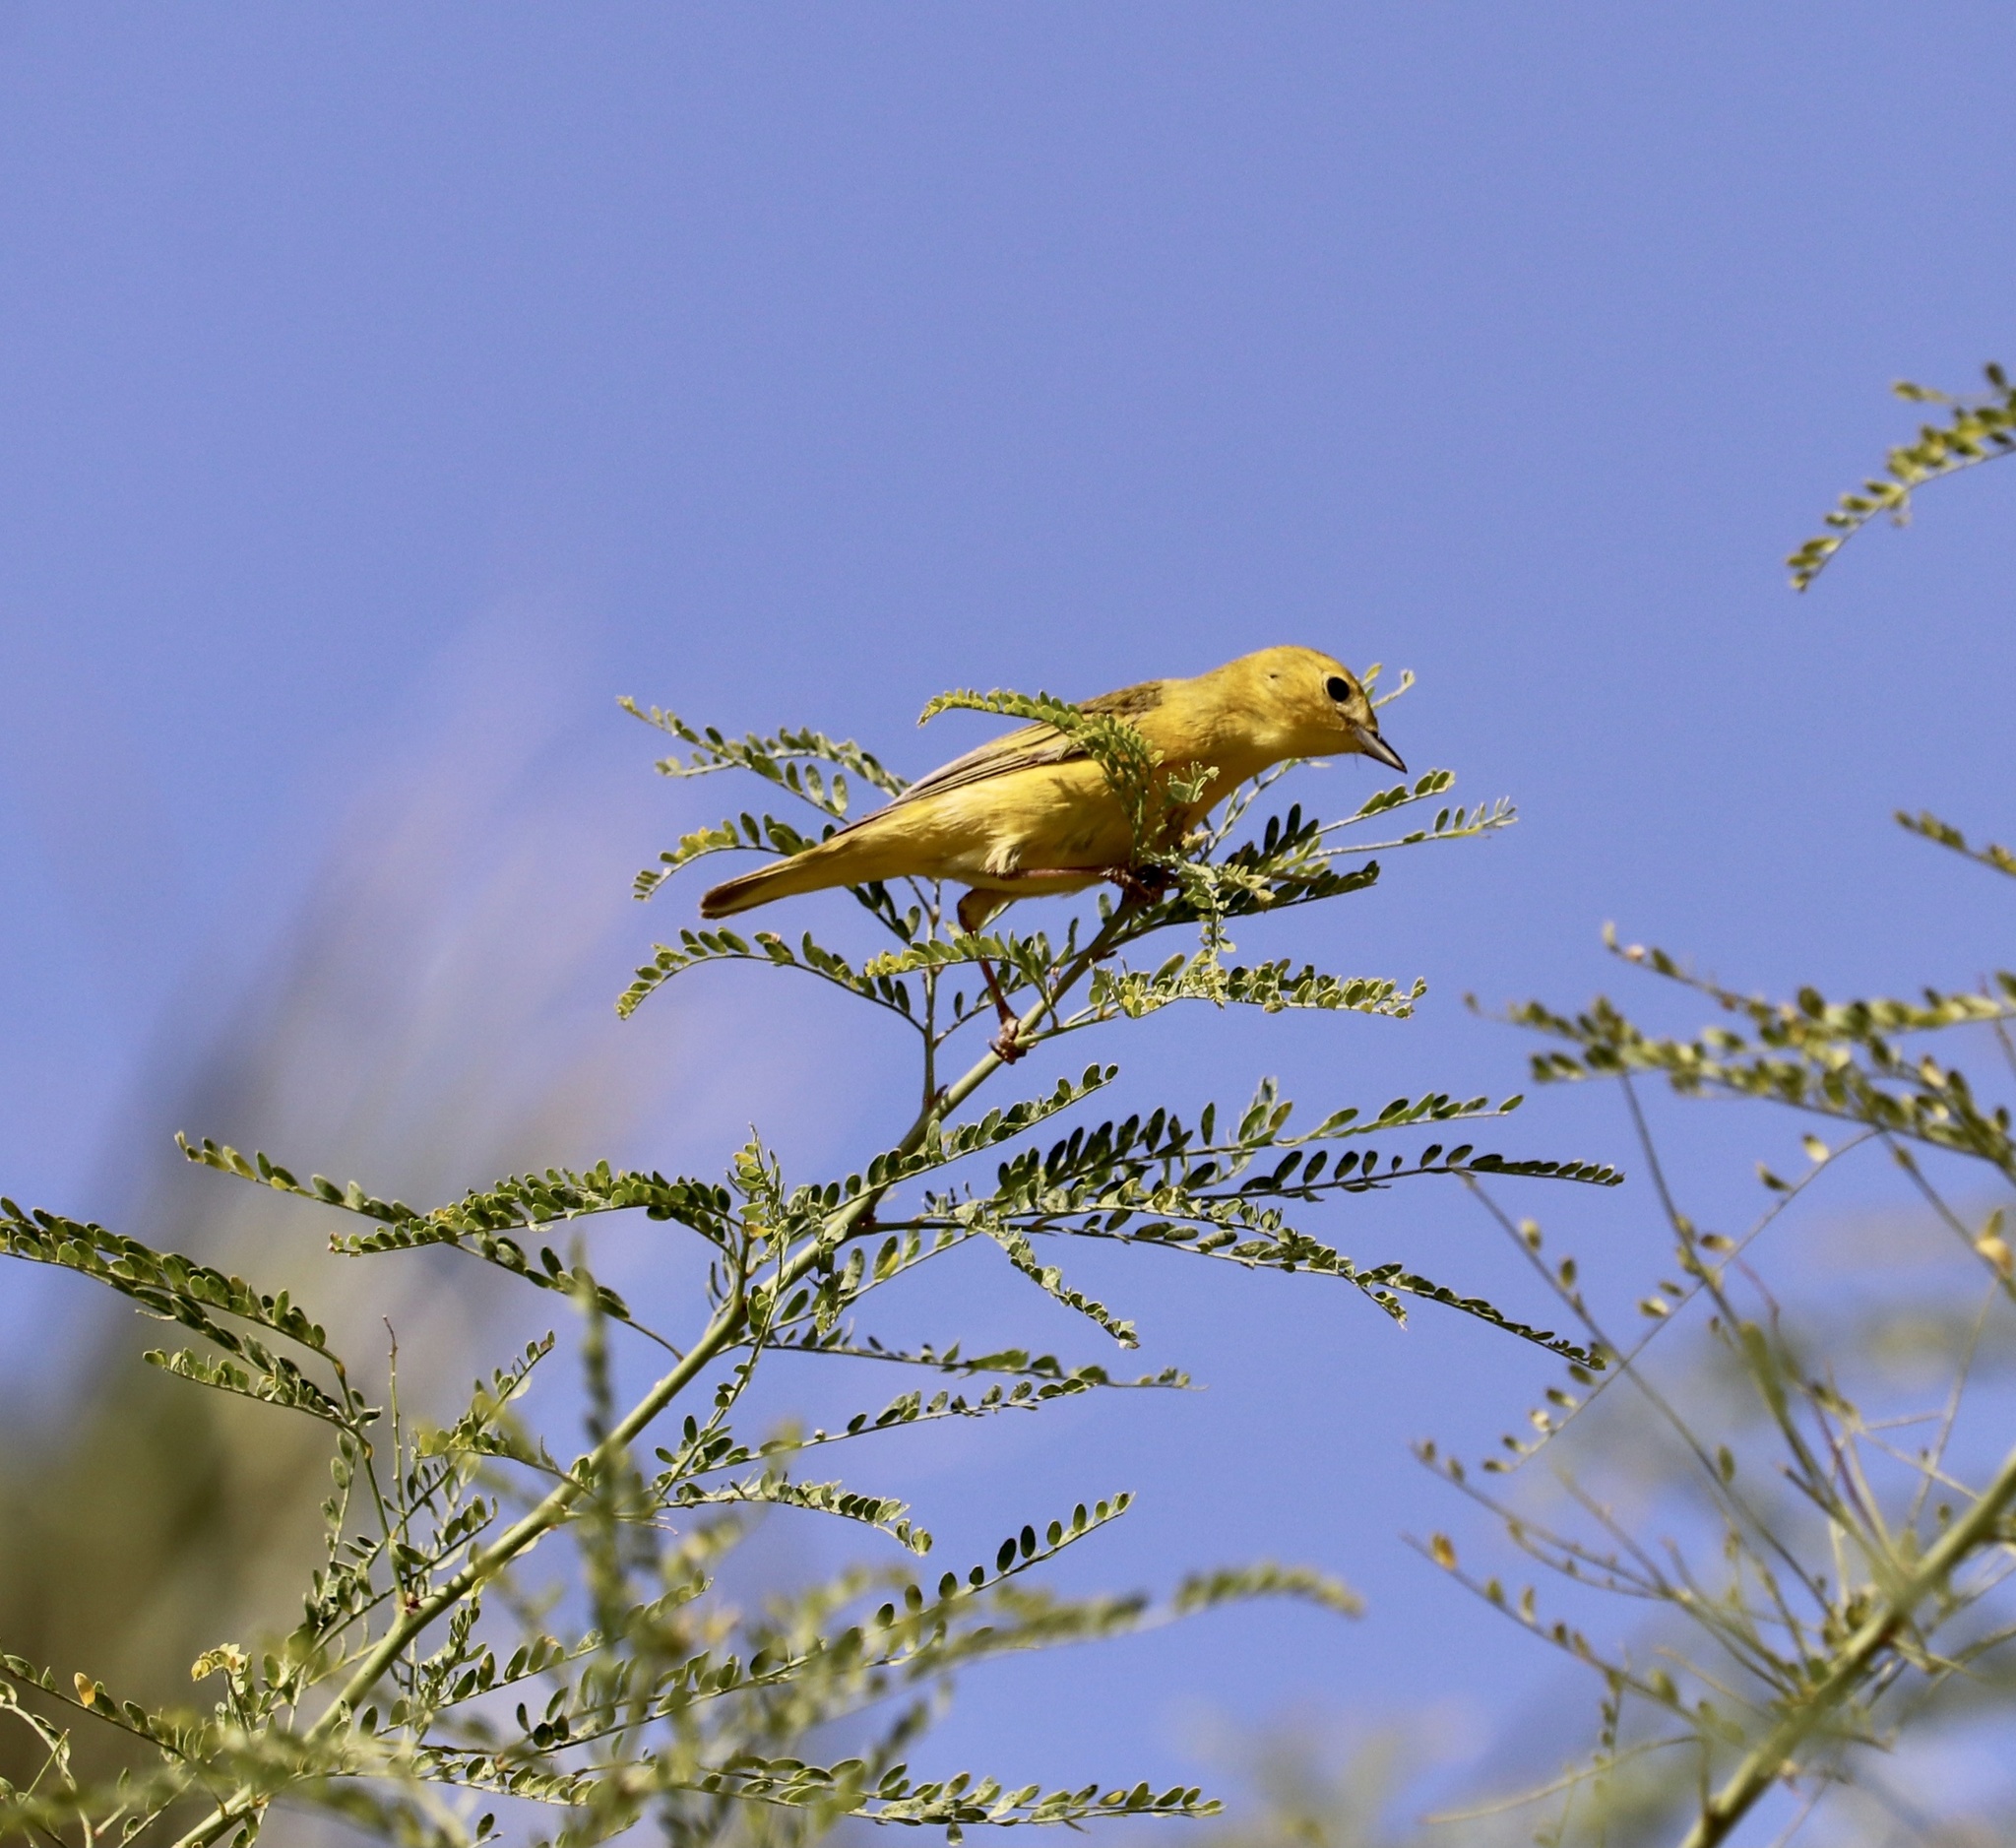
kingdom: Animalia
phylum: Chordata
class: Aves
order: Passeriformes
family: Parulidae
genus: Setophaga
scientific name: Setophaga petechia
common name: Yellow warbler
